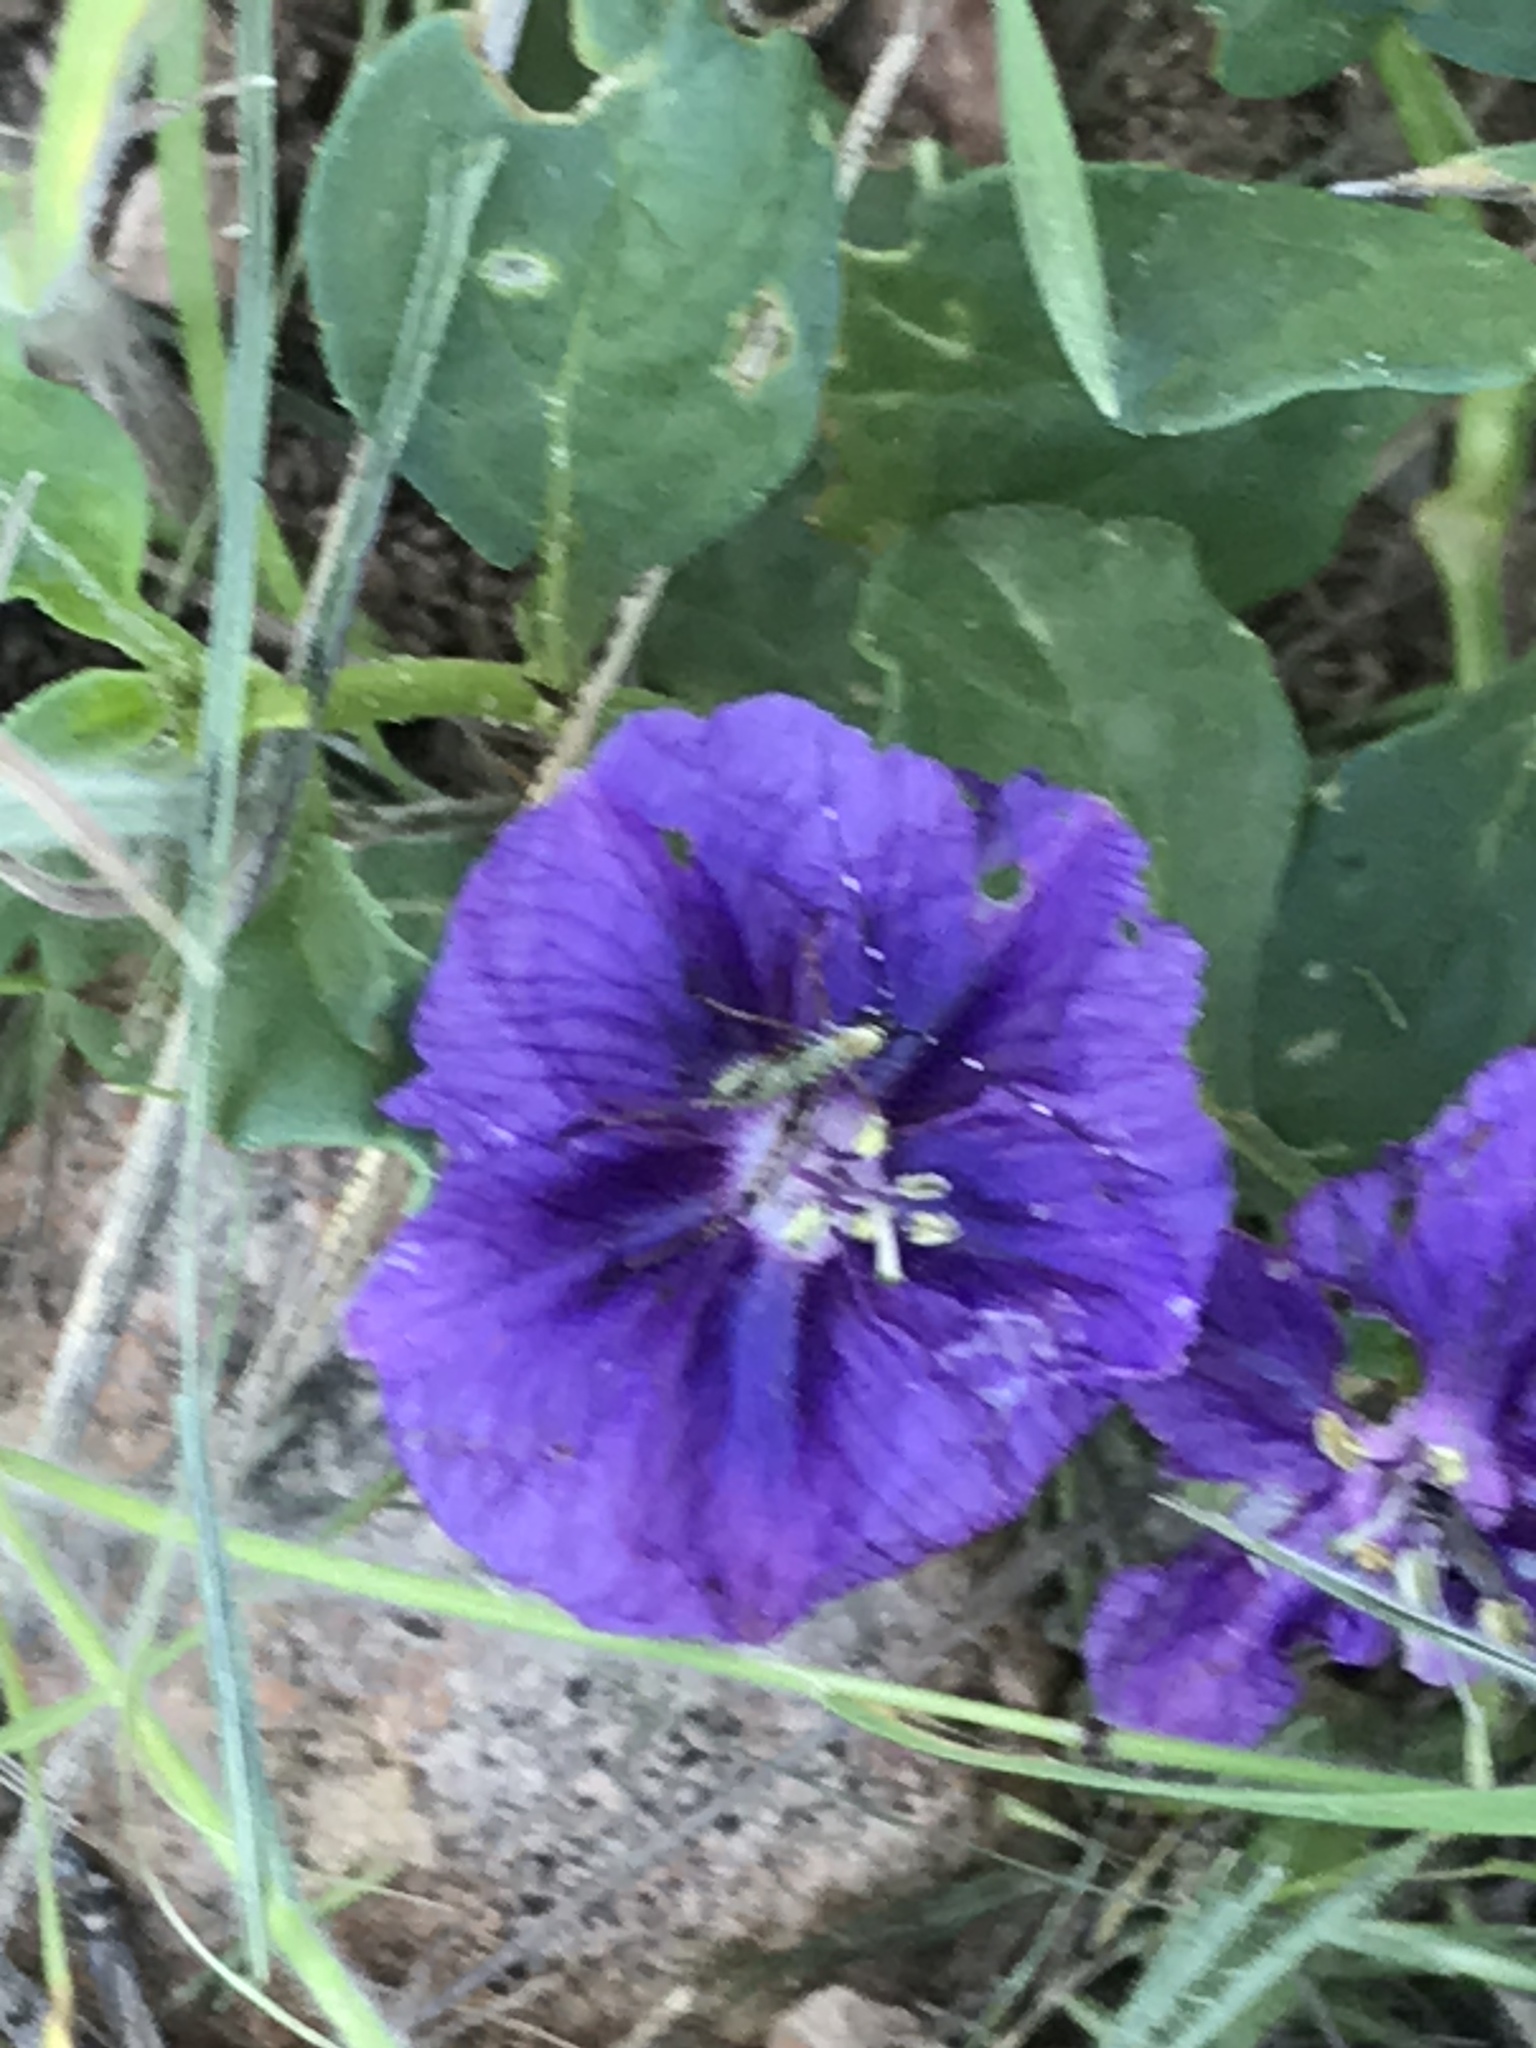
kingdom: Plantae
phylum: Tracheophyta
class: Magnoliopsida
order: Solanales
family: Solanaceae
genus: Quincula
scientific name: Quincula lobata
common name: Purple-ground-cherry
